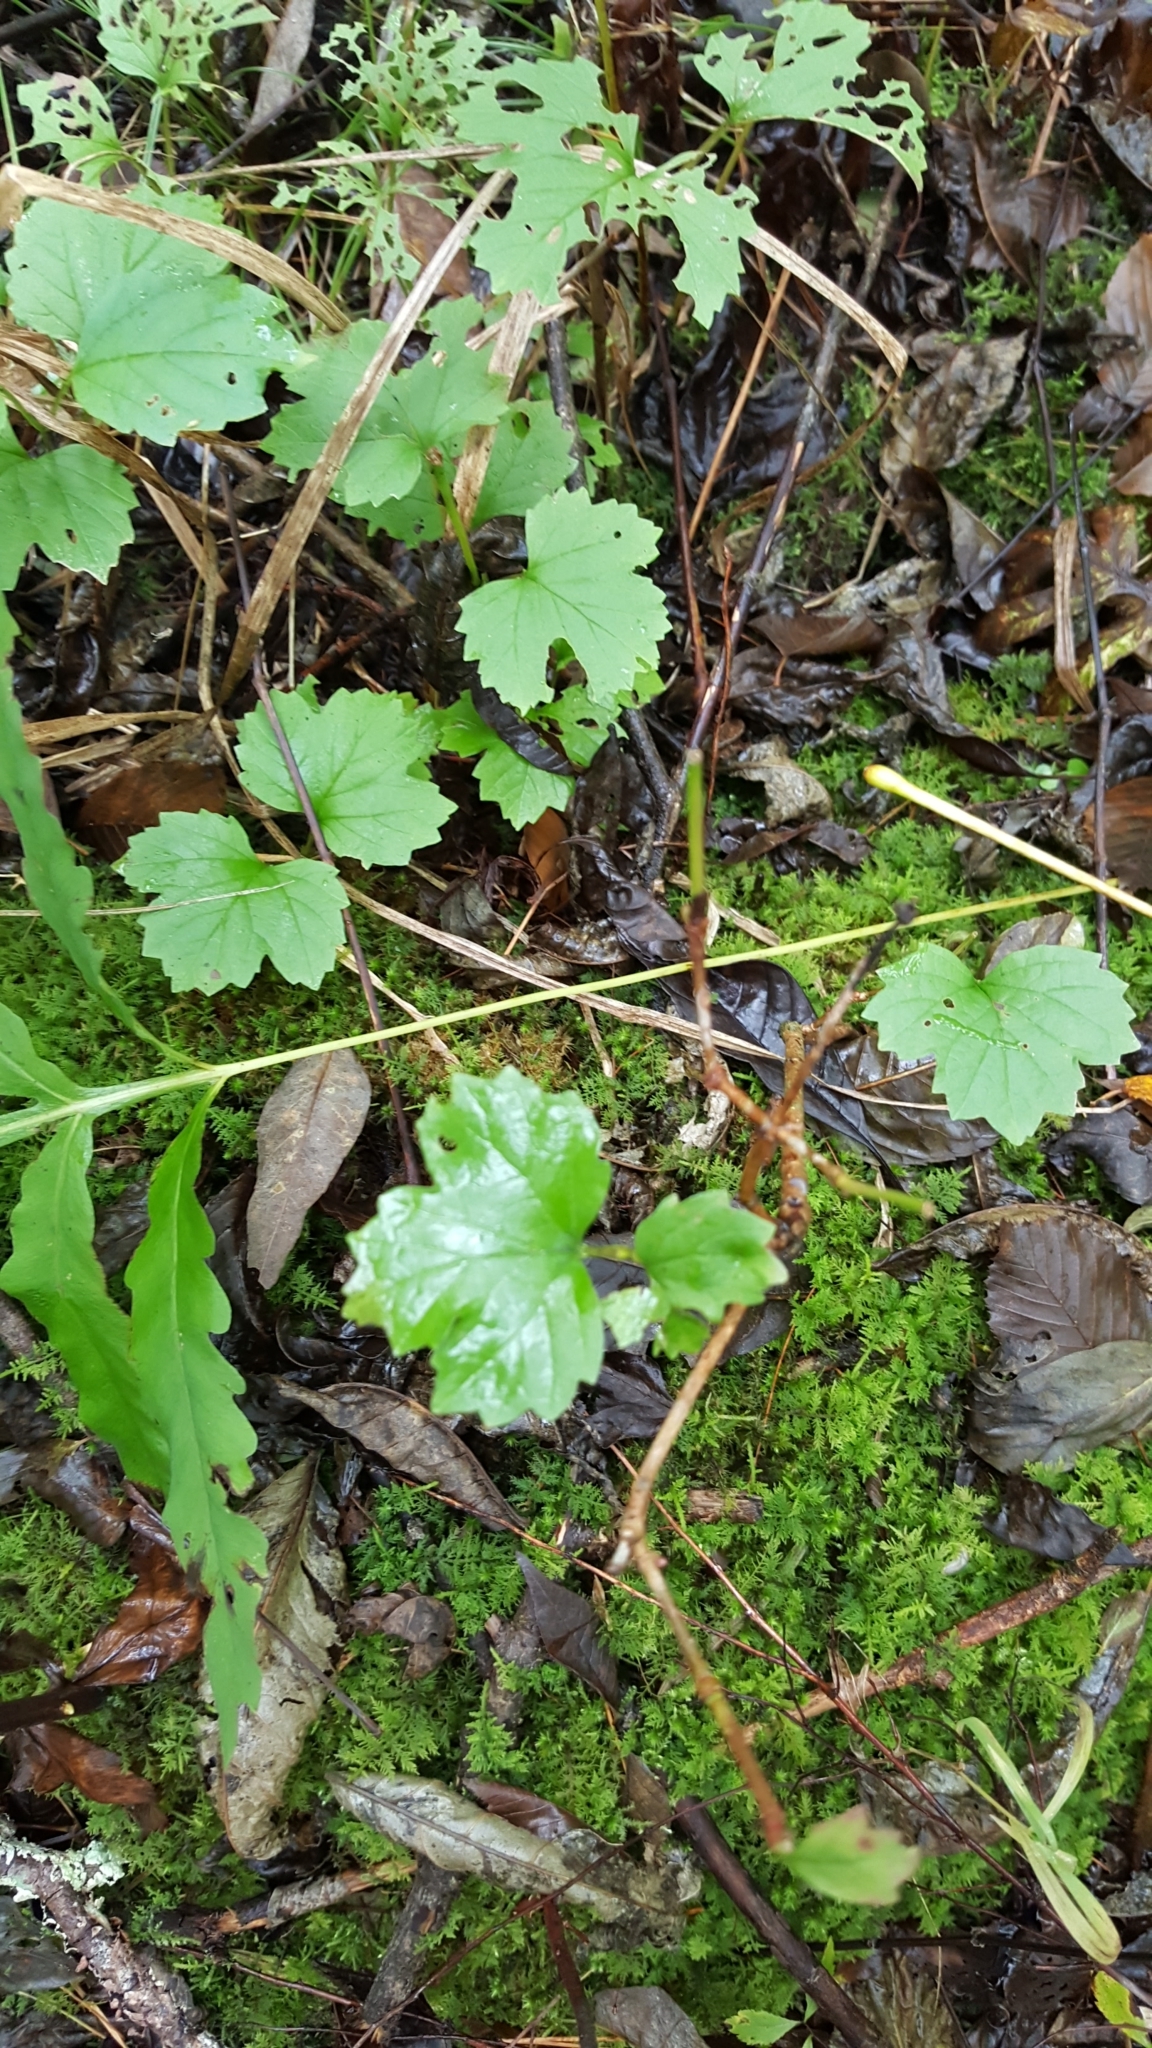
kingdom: Plantae
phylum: Tracheophyta
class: Magnoliopsida
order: Dipsacales
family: Viburnaceae
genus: Viburnum
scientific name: Viburnum opulus
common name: Guelder-rose
